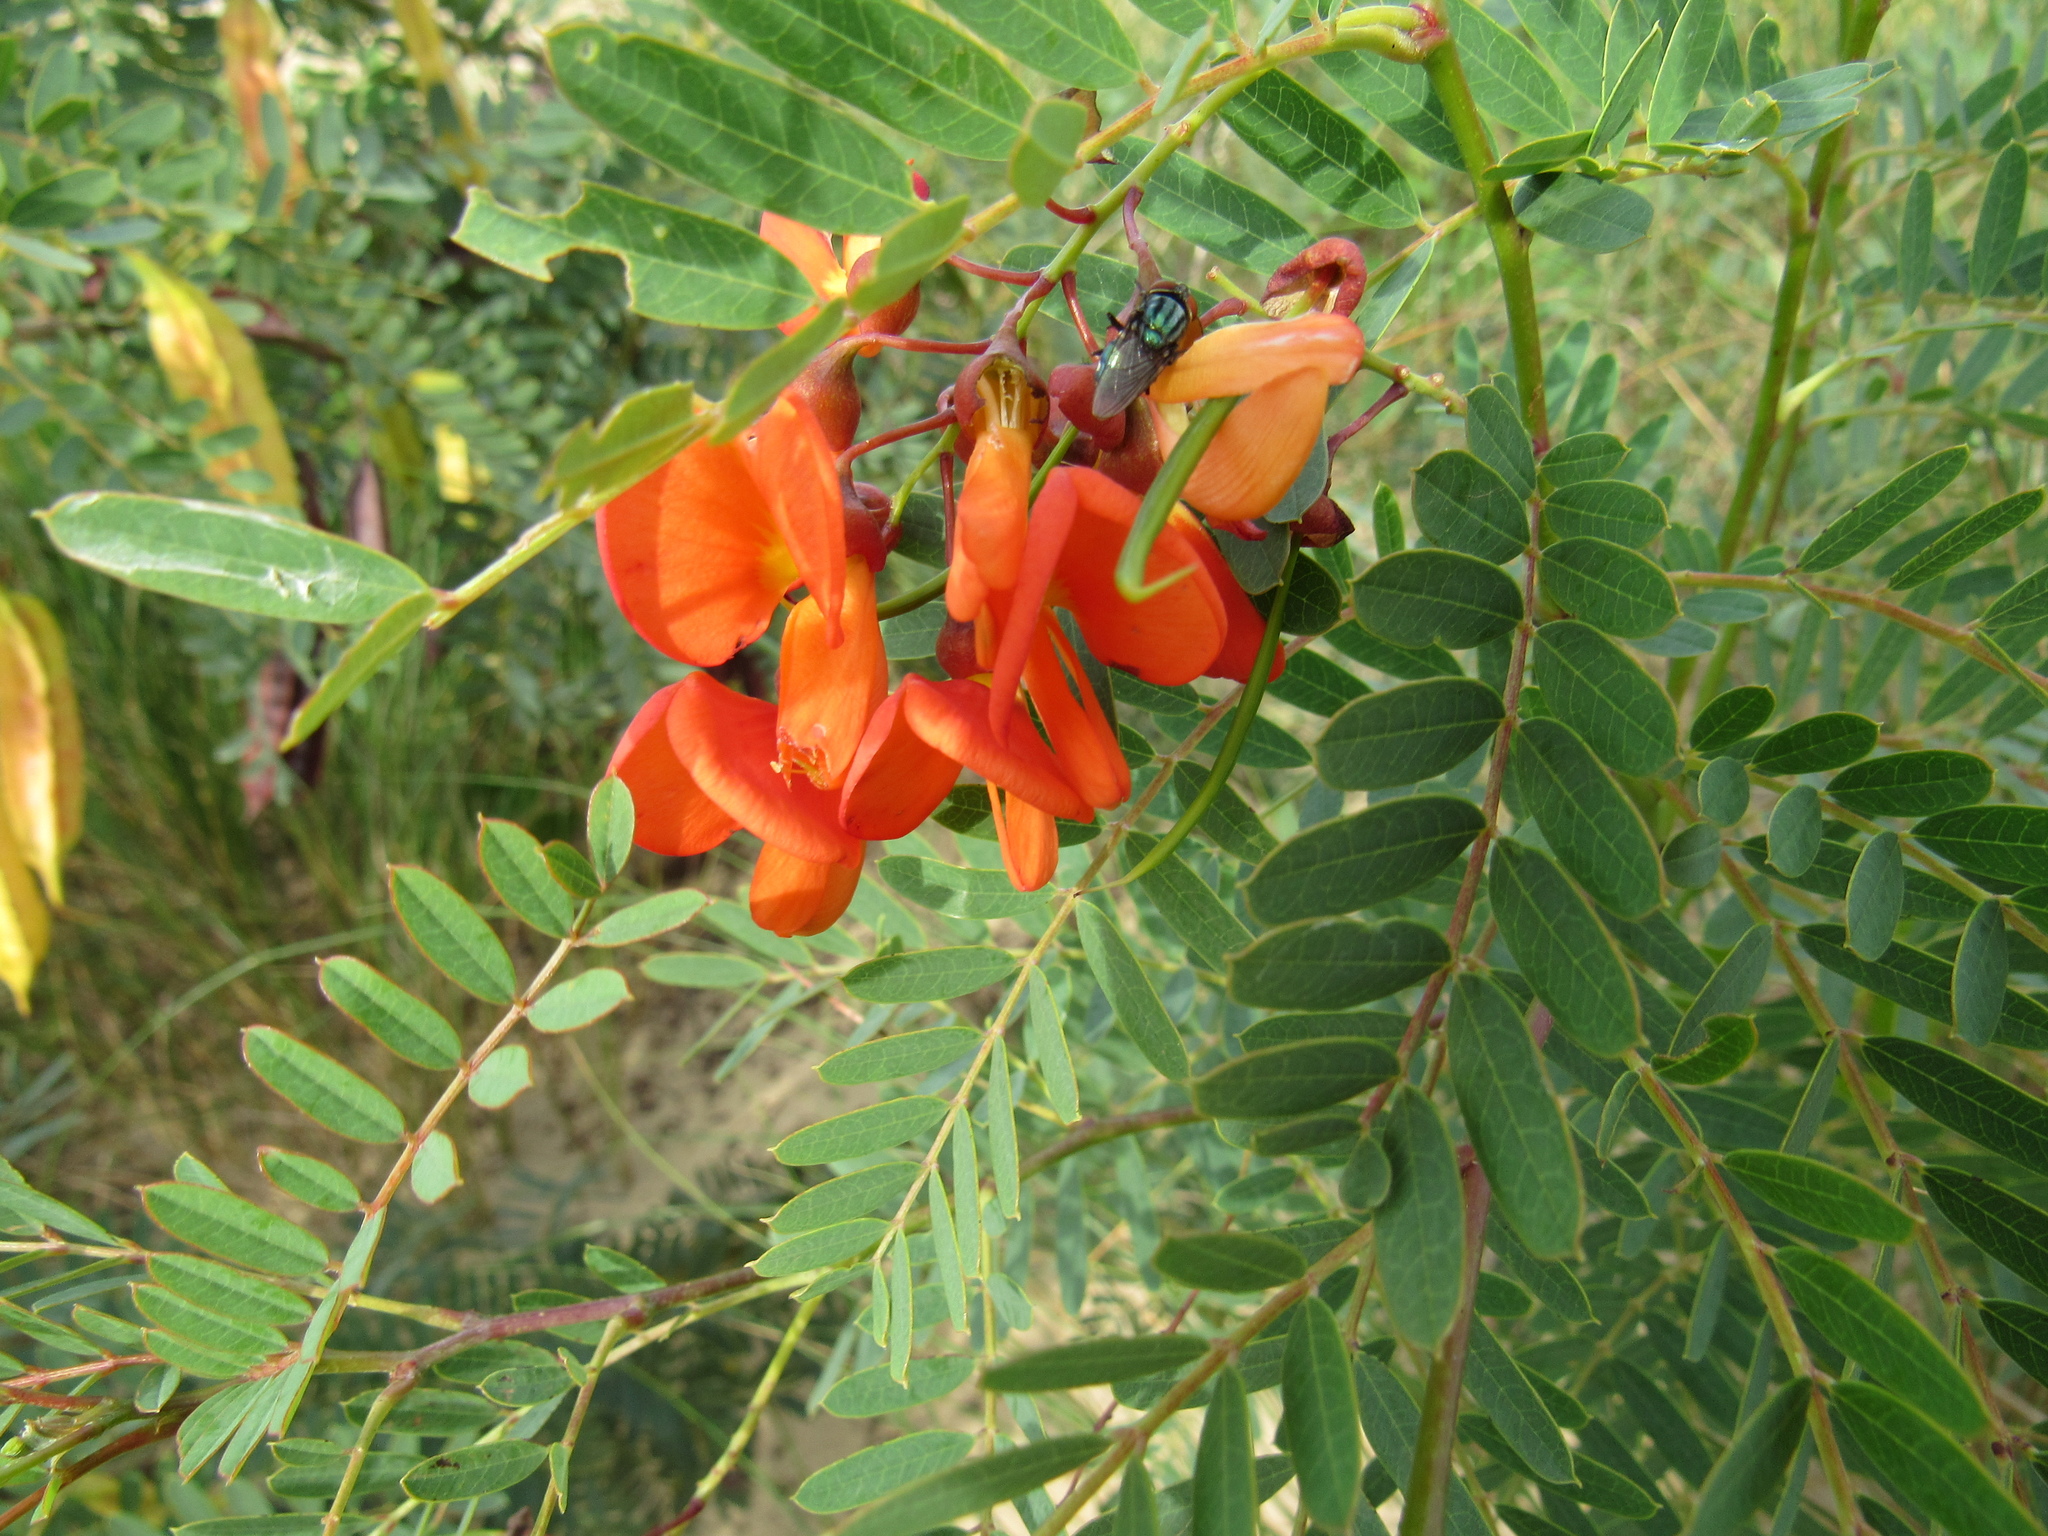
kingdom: Plantae
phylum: Tracheophyta
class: Magnoliopsida
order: Fabales
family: Fabaceae
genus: Sesbania
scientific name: Sesbania punicea
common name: Rattlebox
